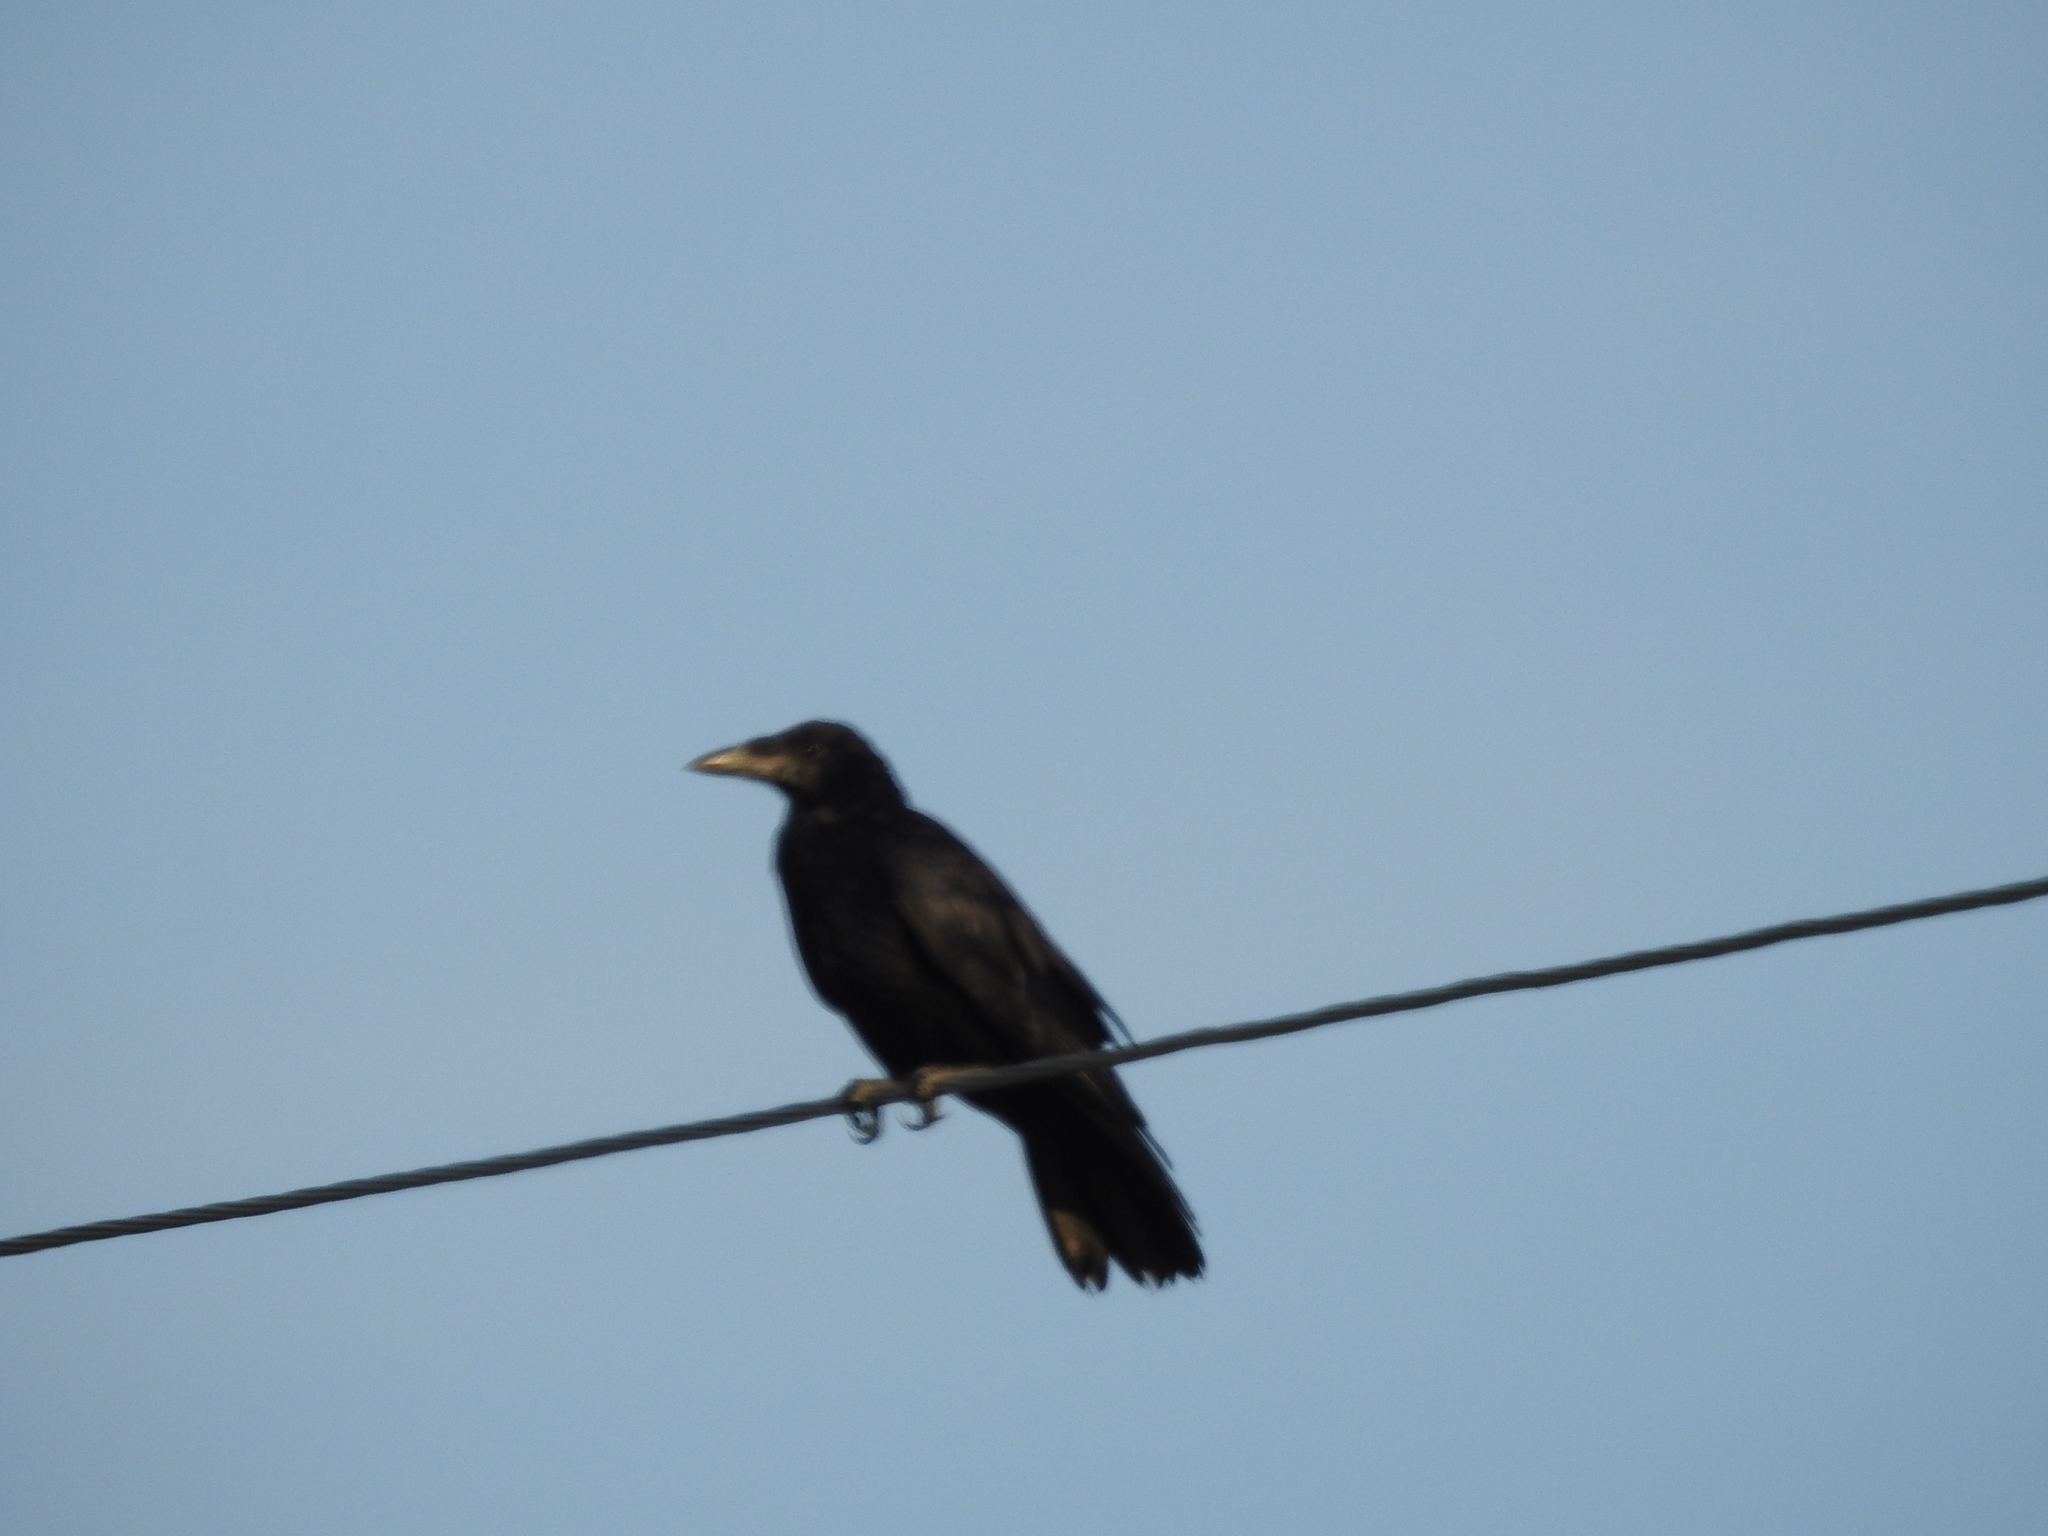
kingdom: Animalia
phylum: Chordata
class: Aves
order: Passeriformes
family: Corvidae
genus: Corvus
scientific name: Corvus frugilegus
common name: Rook
